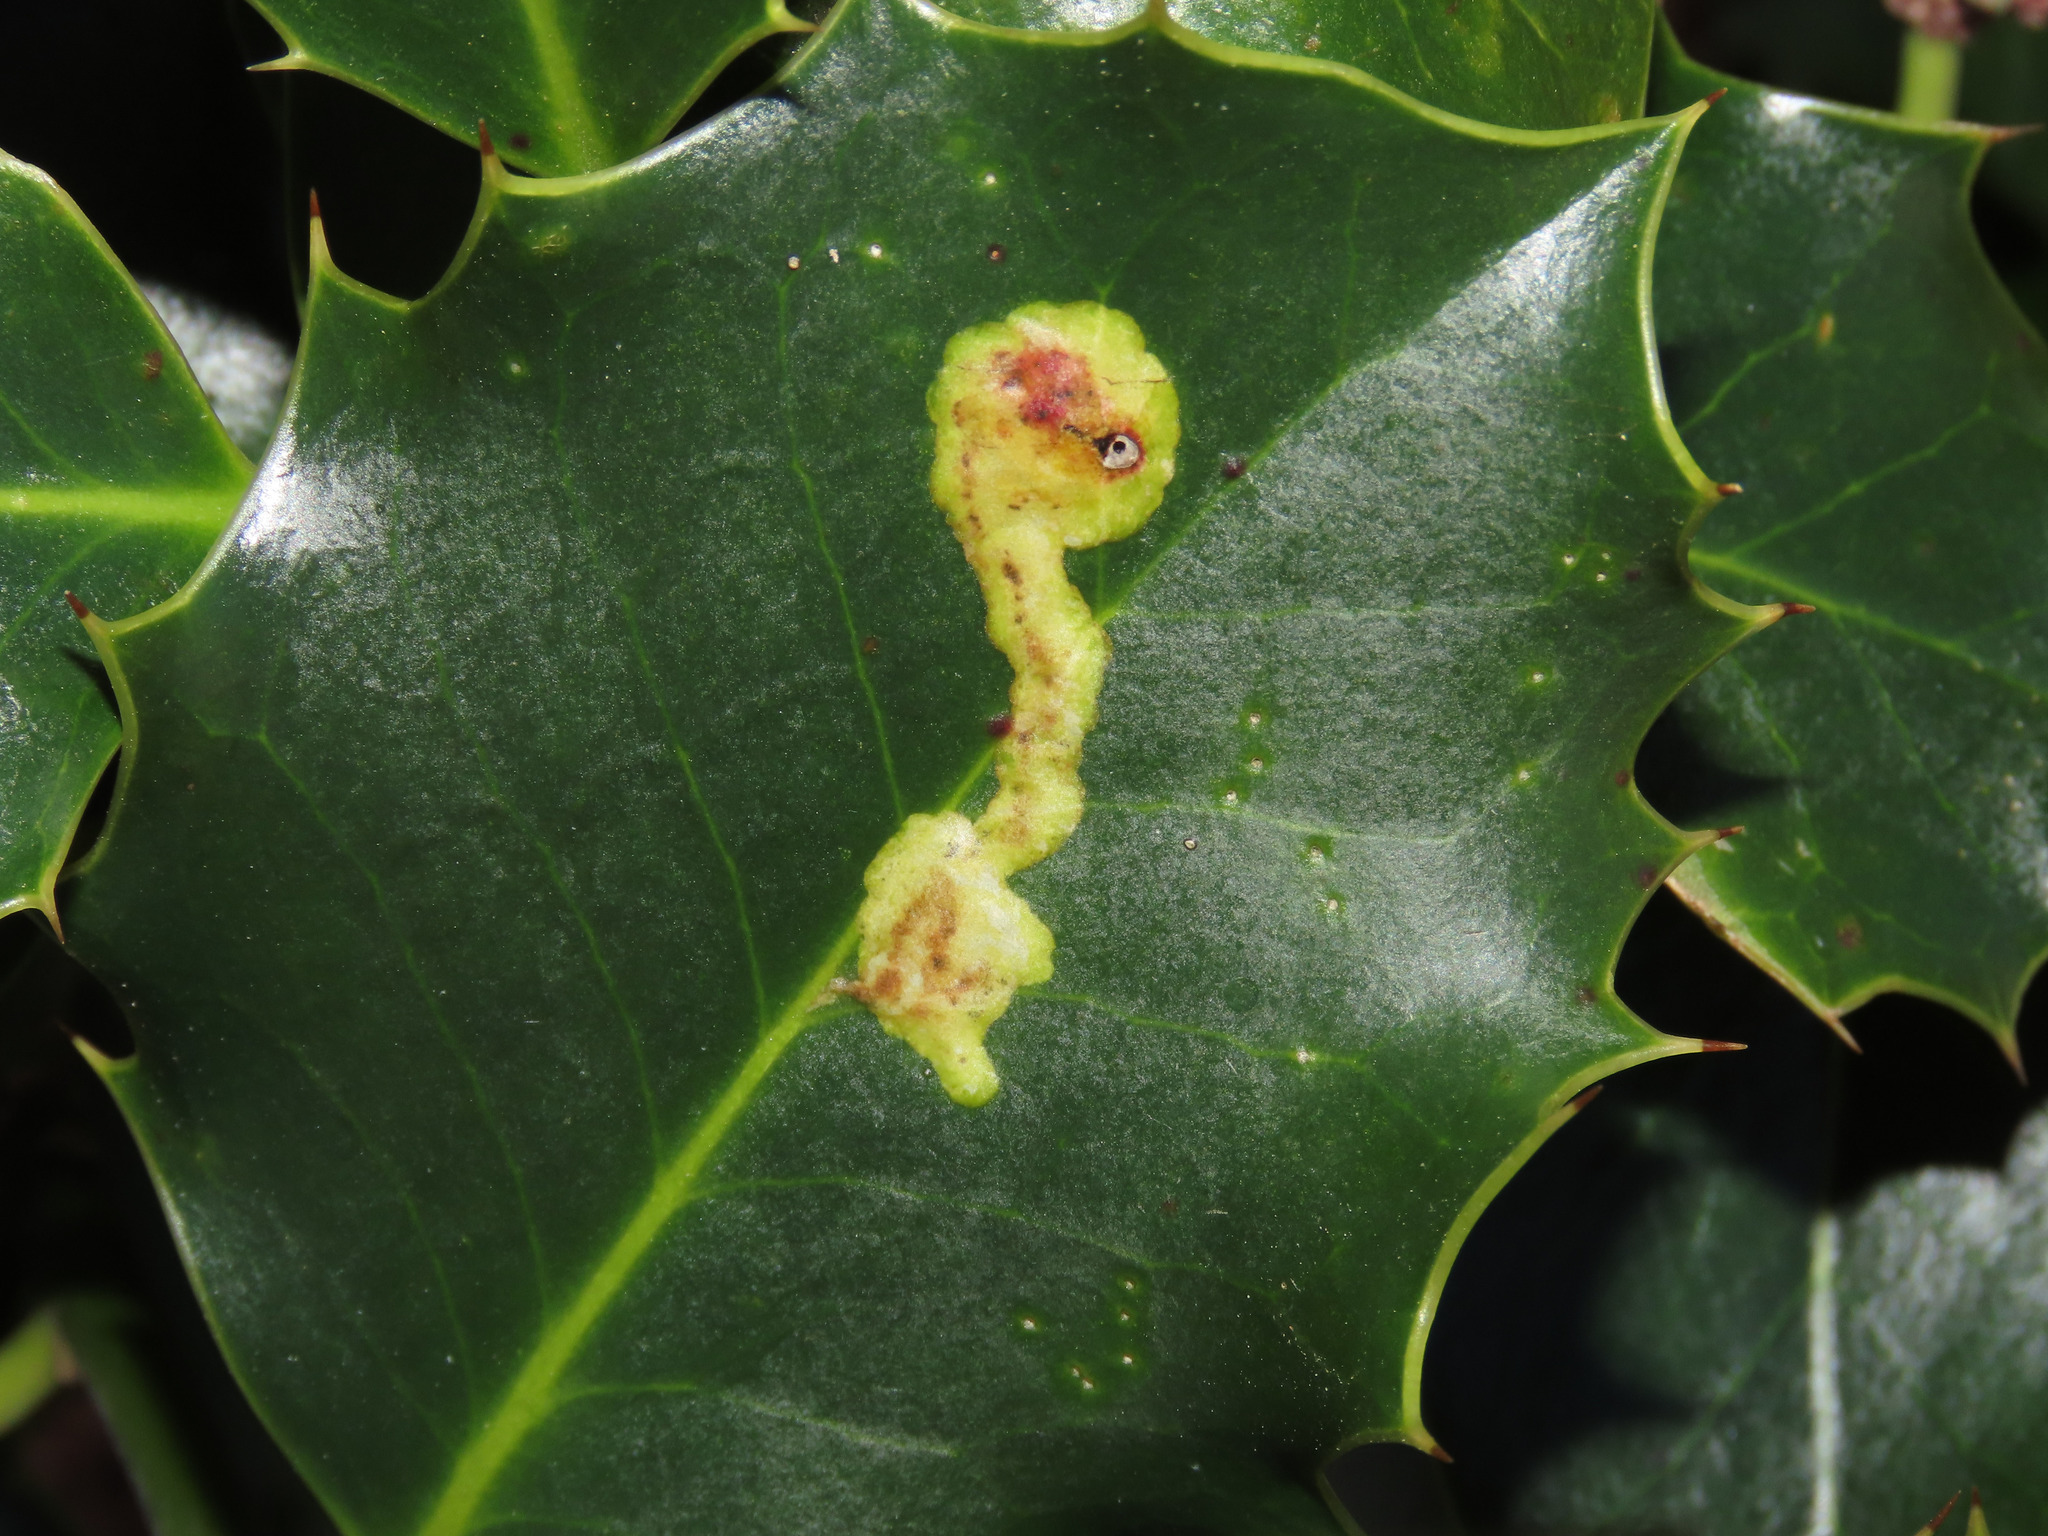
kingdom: Animalia
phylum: Arthropoda
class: Insecta
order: Diptera
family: Agromyzidae
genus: Phytomyza
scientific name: Phytomyza ilicis
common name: Holly leafminer
